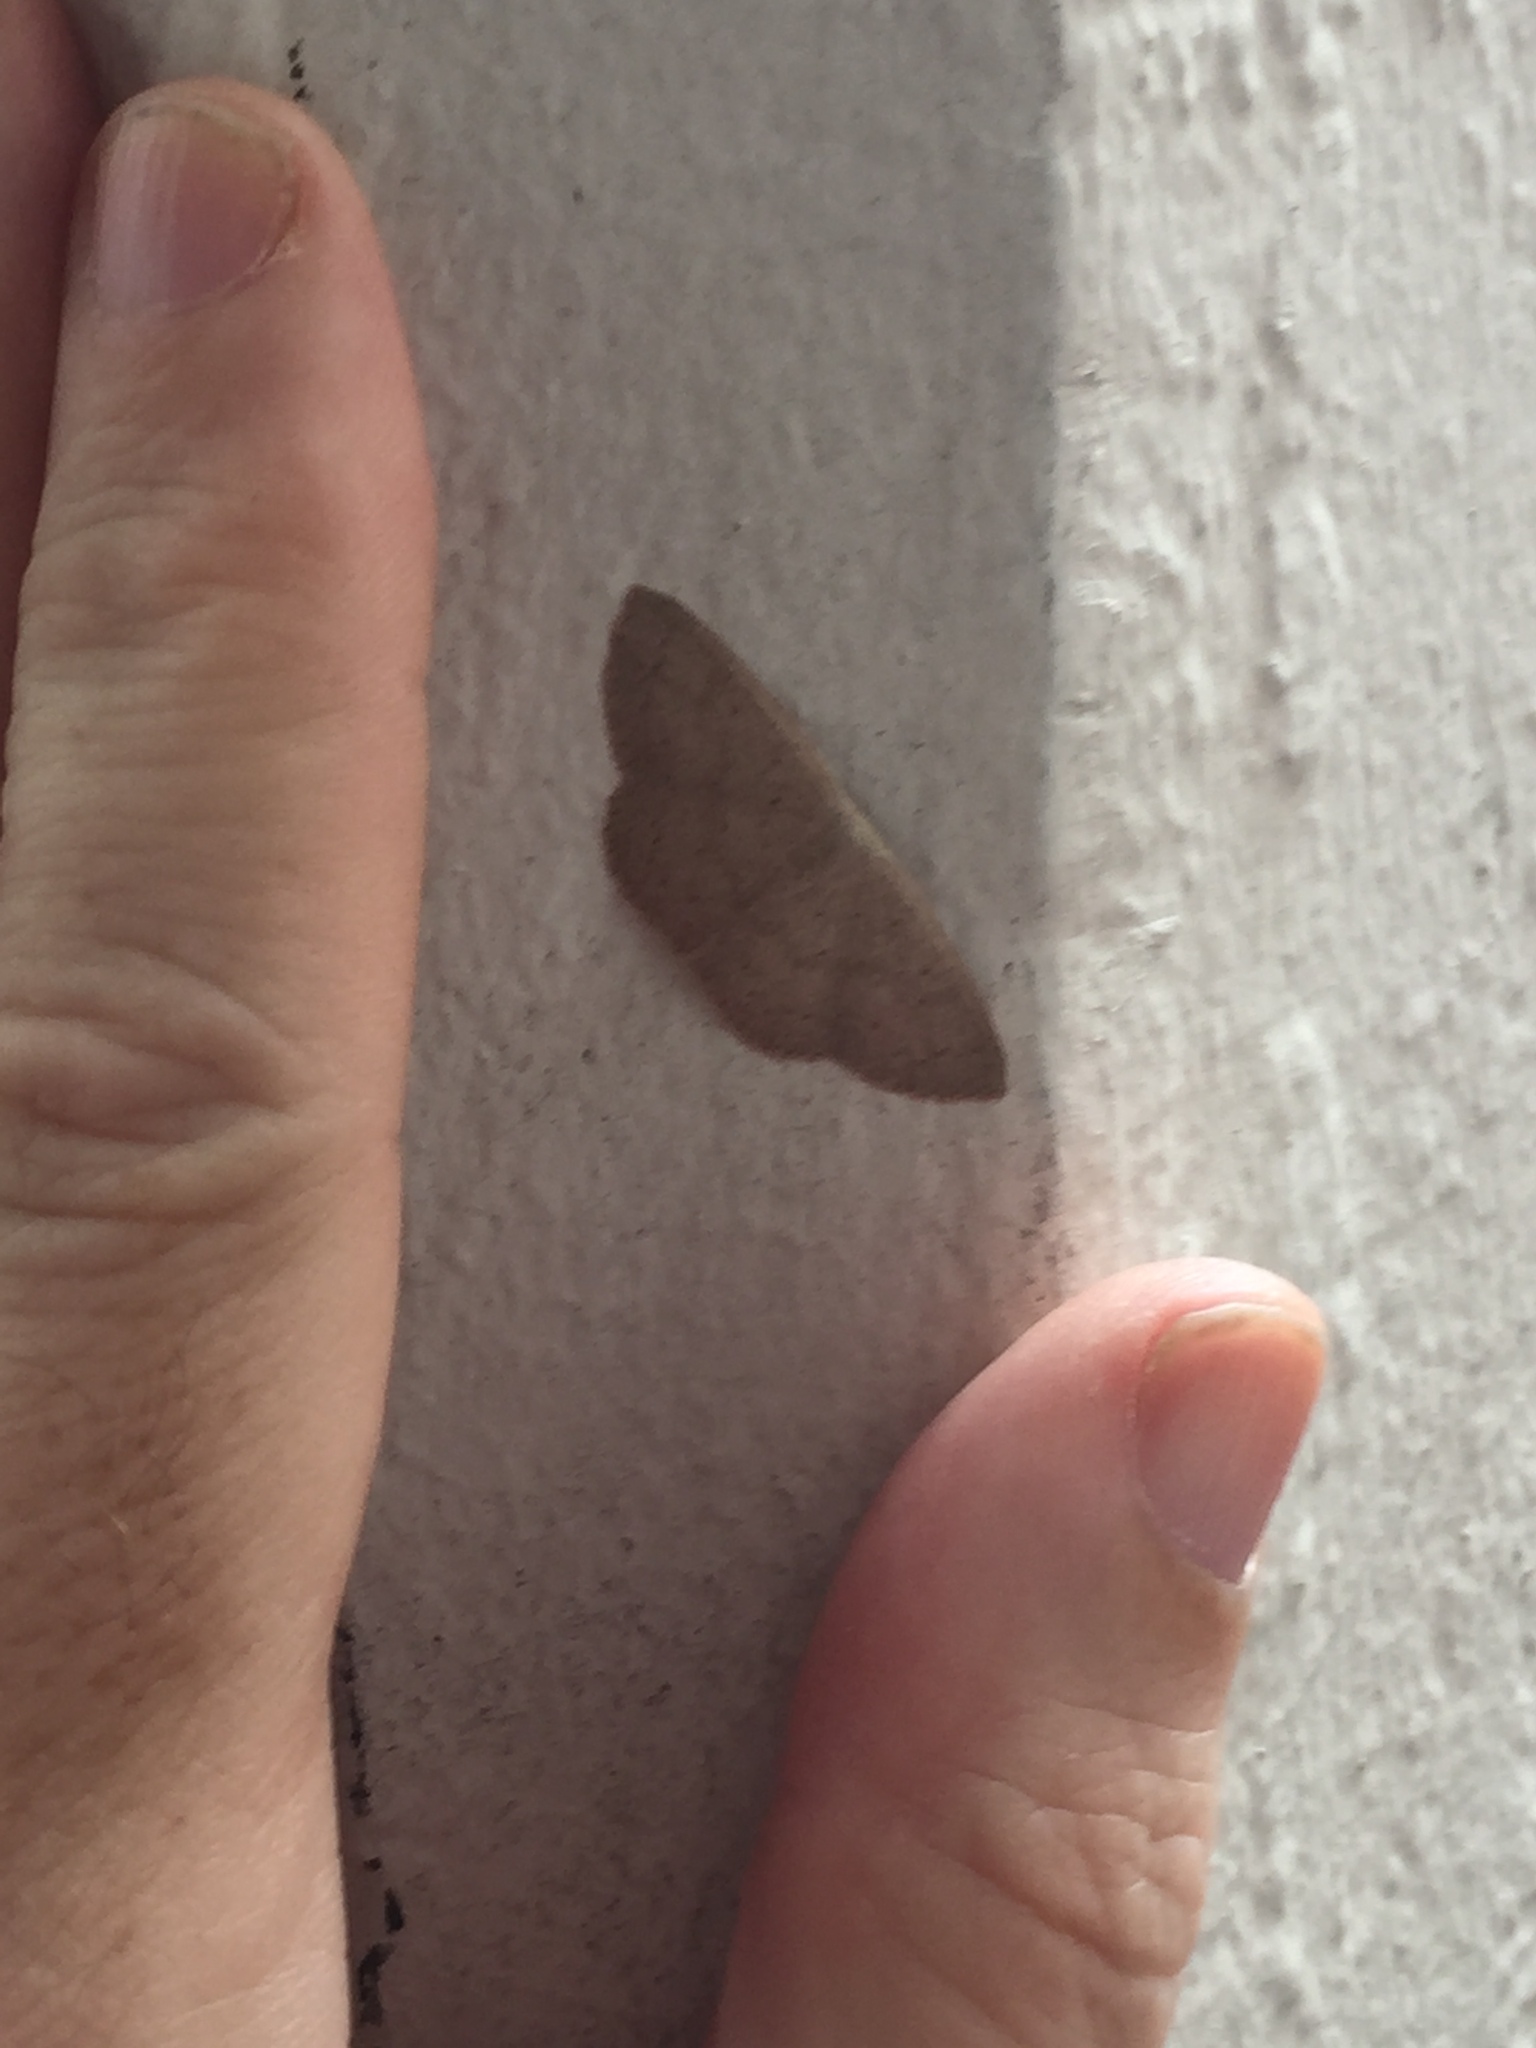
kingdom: Animalia
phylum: Arthropoda
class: Insecta
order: Lepidoptera
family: Geometridae
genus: Cyclophora
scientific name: Cyclophora obstataria
